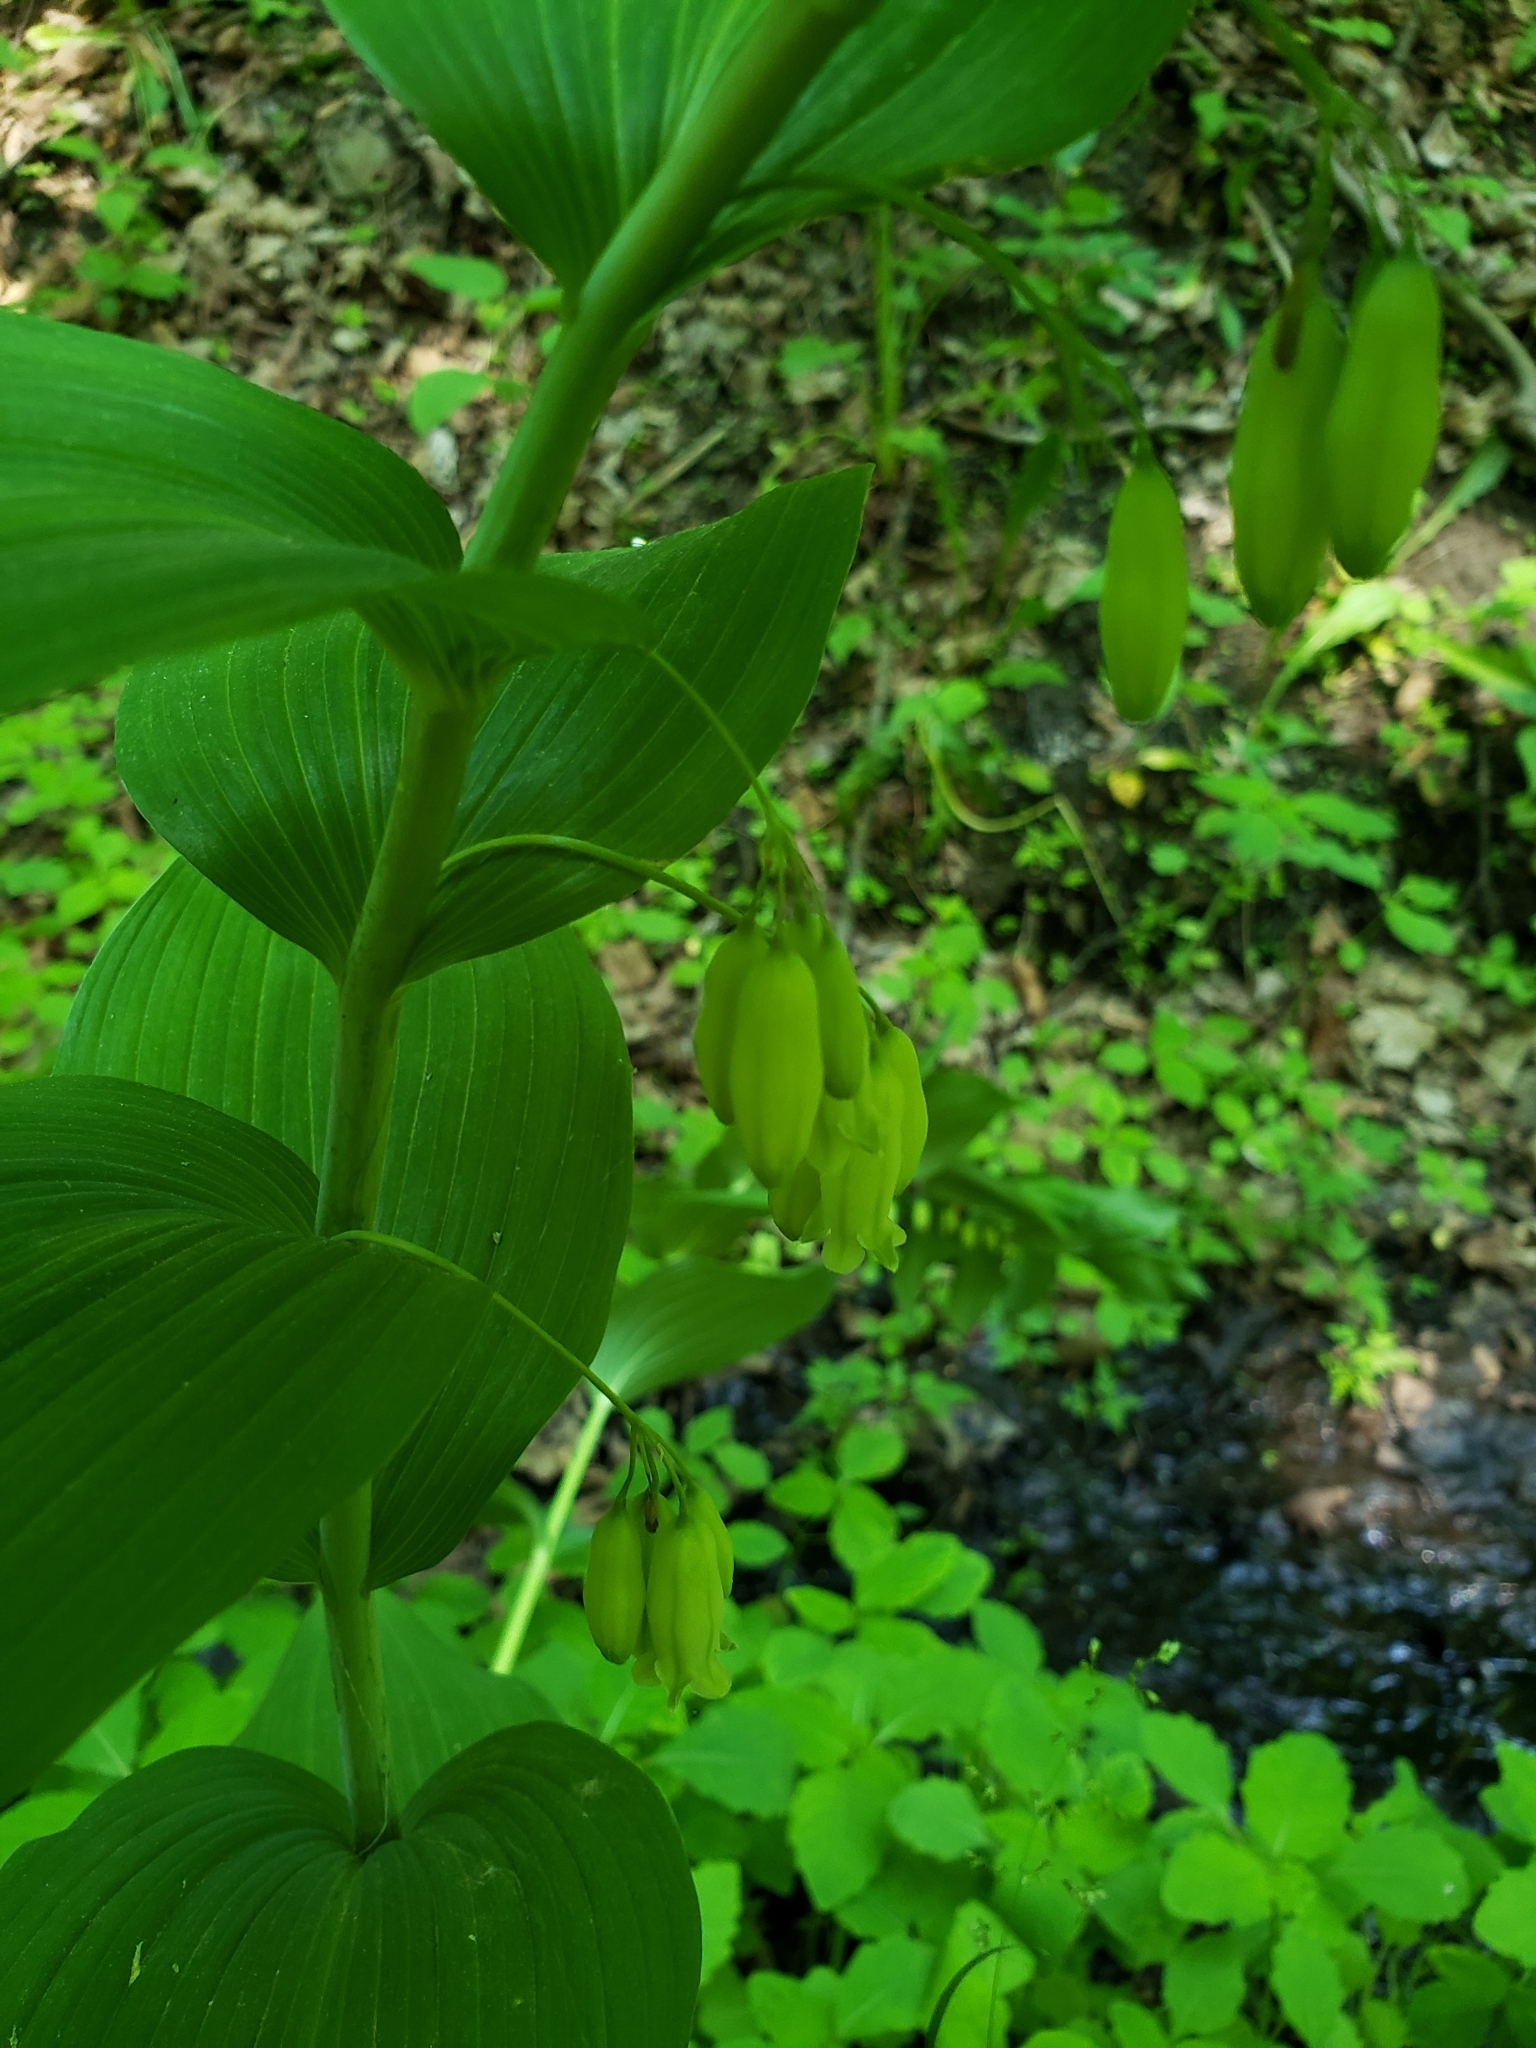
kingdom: Plantae
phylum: Tracheophyta
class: Liliopsida
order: Asparagales
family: Asparagaceae
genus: Polygonatum
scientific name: Polygonatum biflorum
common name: American solomon's-seal
